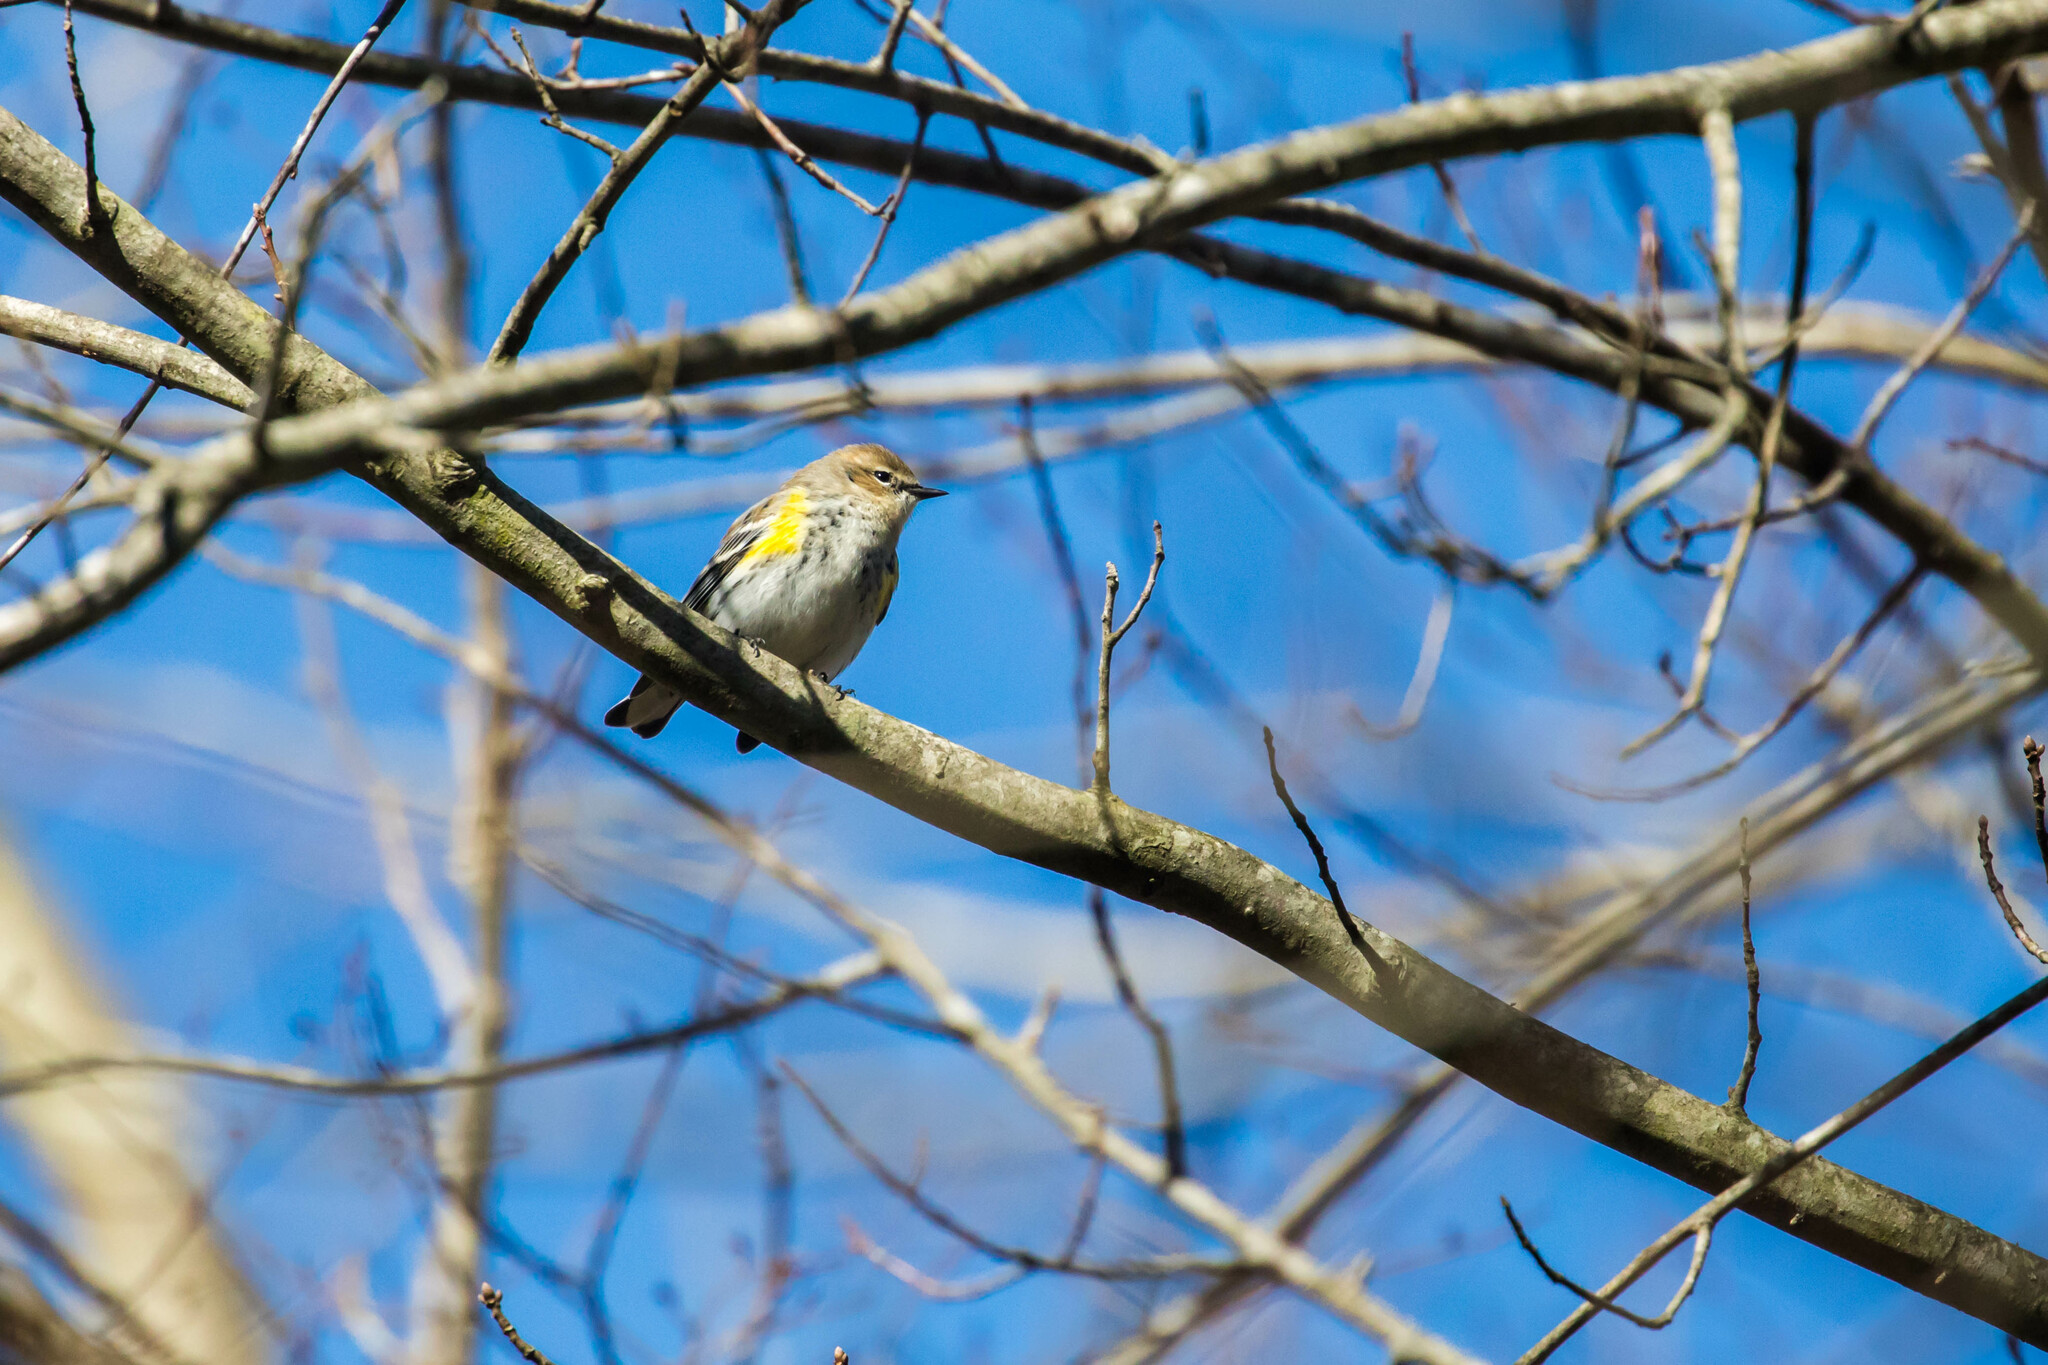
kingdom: Animalia
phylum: Chordata
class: Aves
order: Passeriformes
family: Parulidae
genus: Setophaga
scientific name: Setophaga coronata
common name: Myrtle warbler
